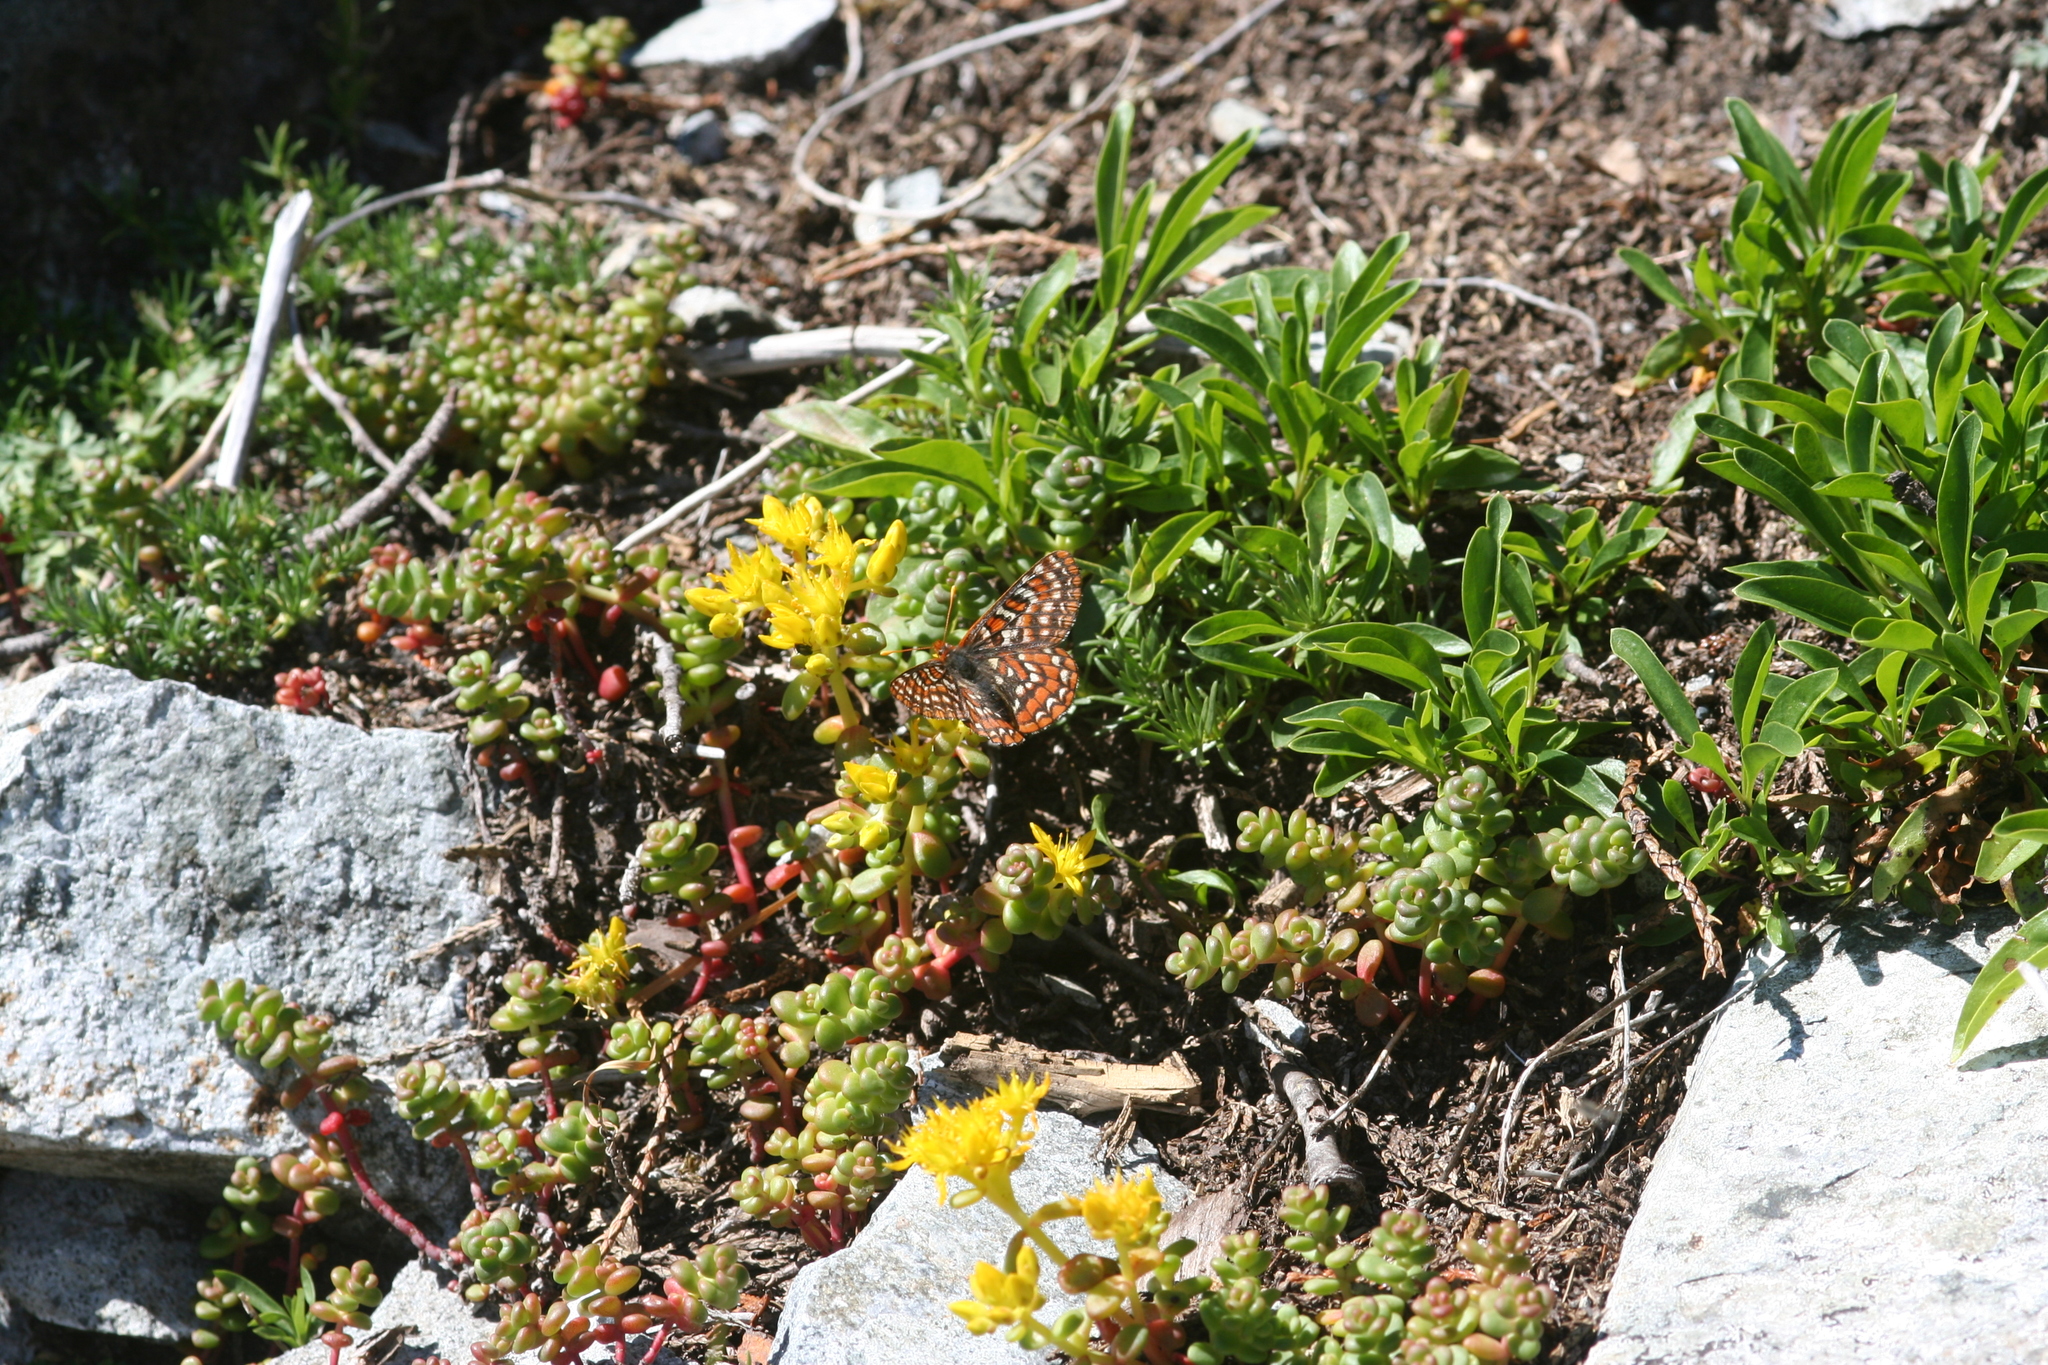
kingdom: Plantae
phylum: Tracheophyta
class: Magnoliopsida
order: Saxifragales
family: Crassulaceae
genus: Sedum
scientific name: Sedum divergens
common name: Cascade stonecrop
